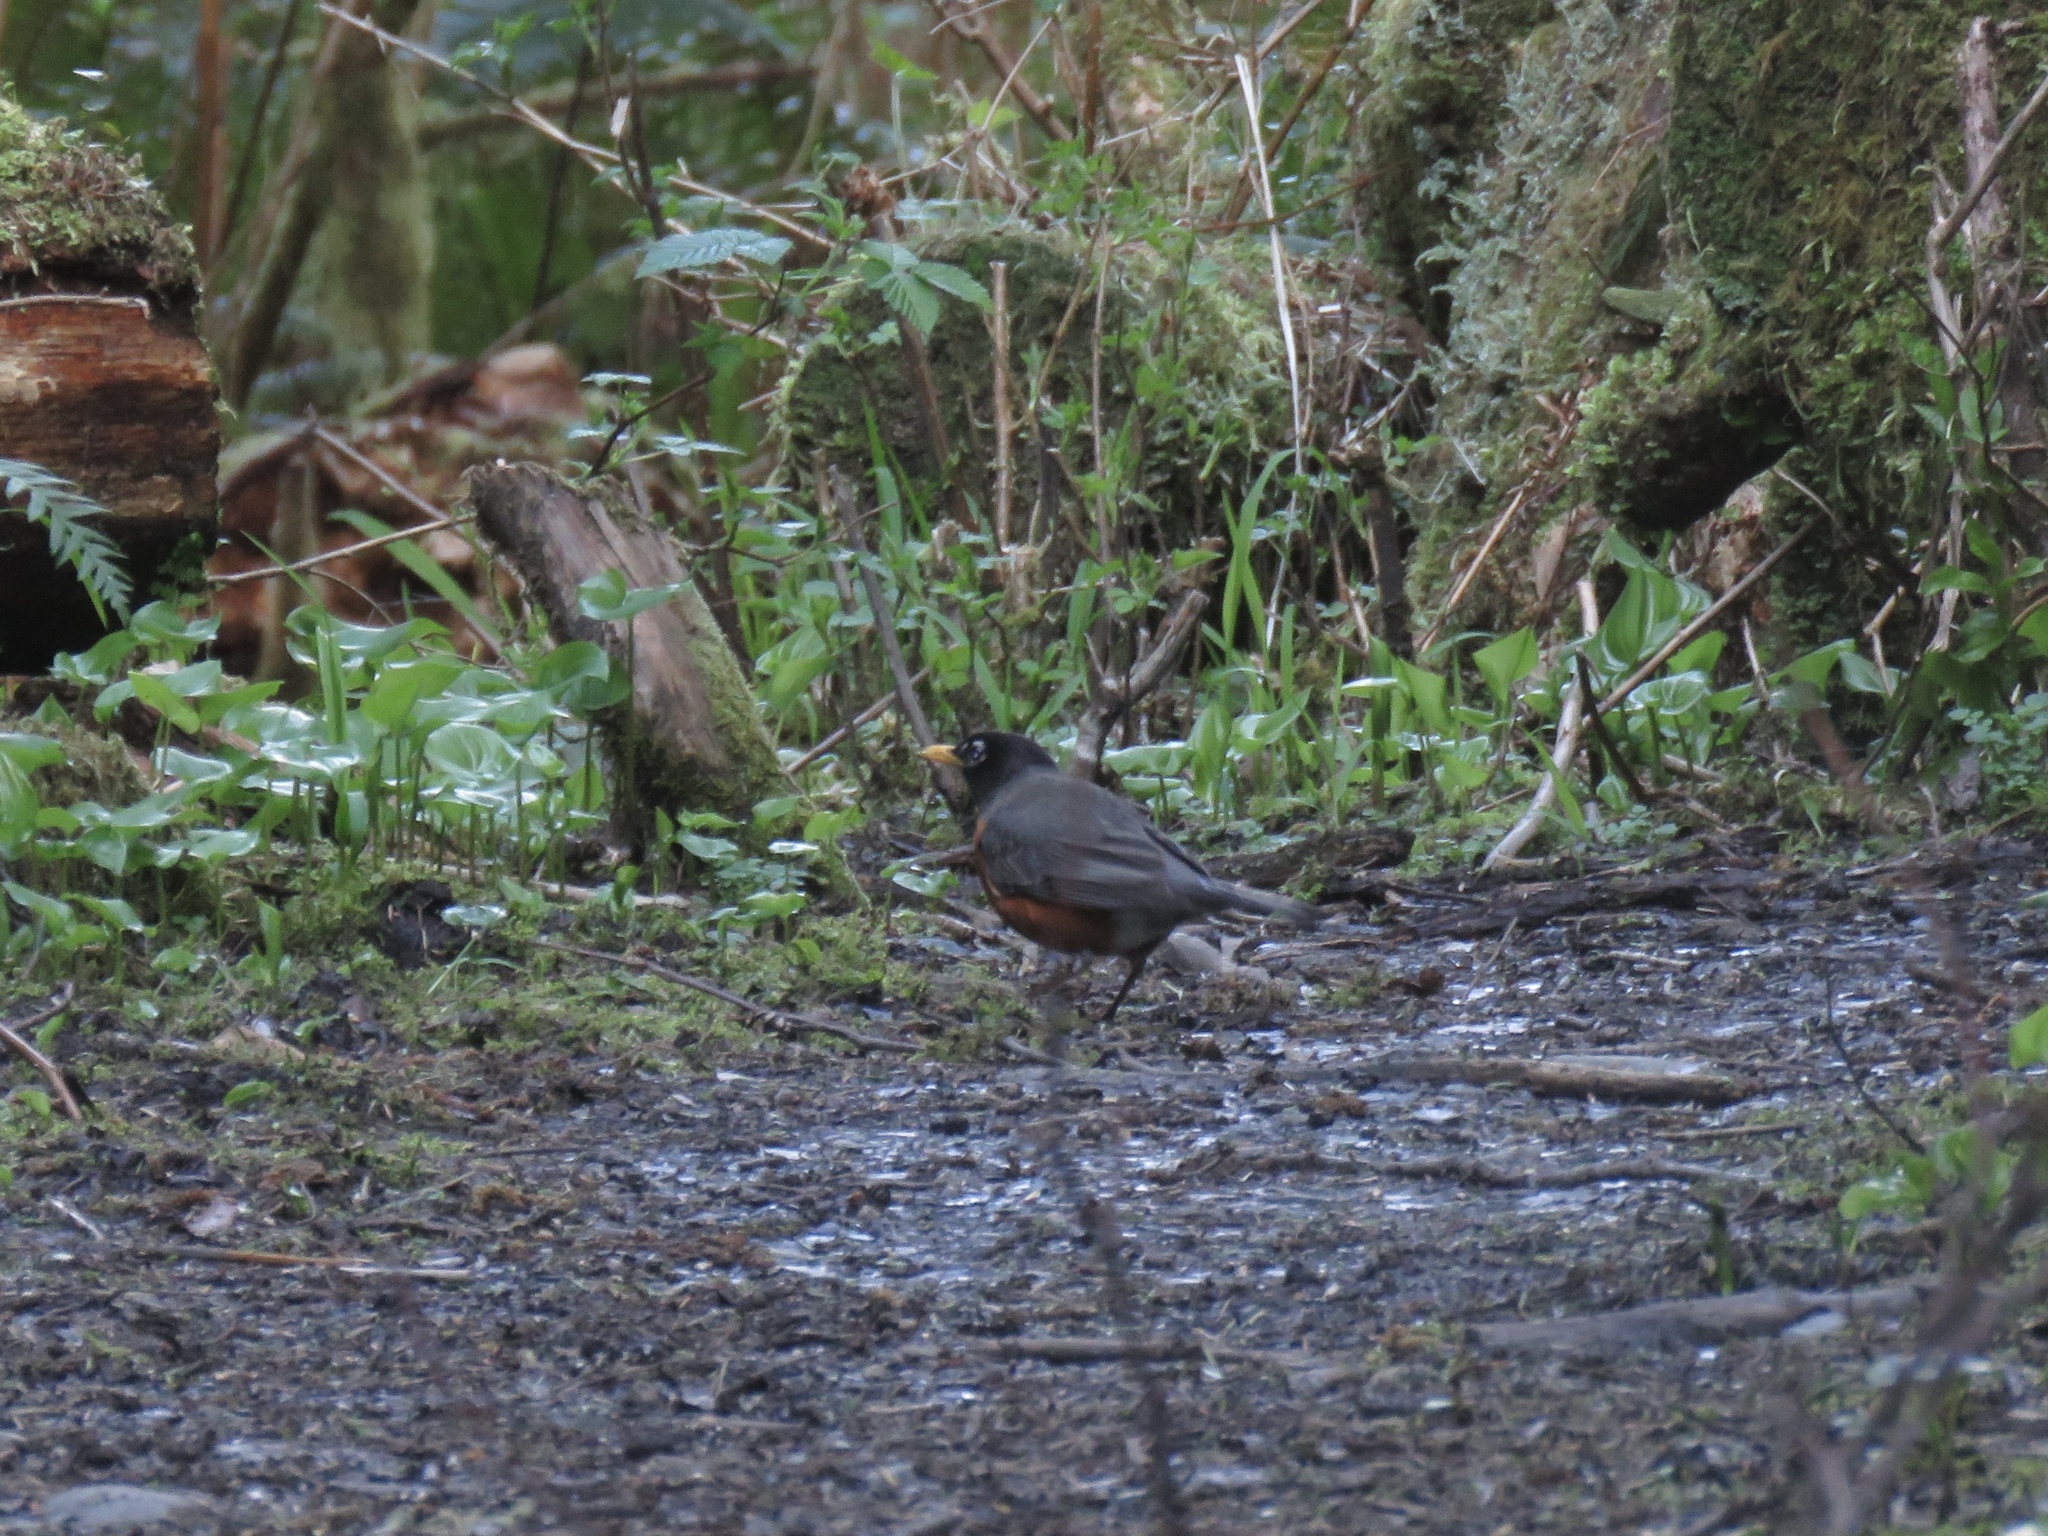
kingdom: Animalia
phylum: Chordata
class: Aves
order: Passeriformes
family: Turdidae
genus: Turdus
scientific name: Turdus migratorius
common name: American robin
